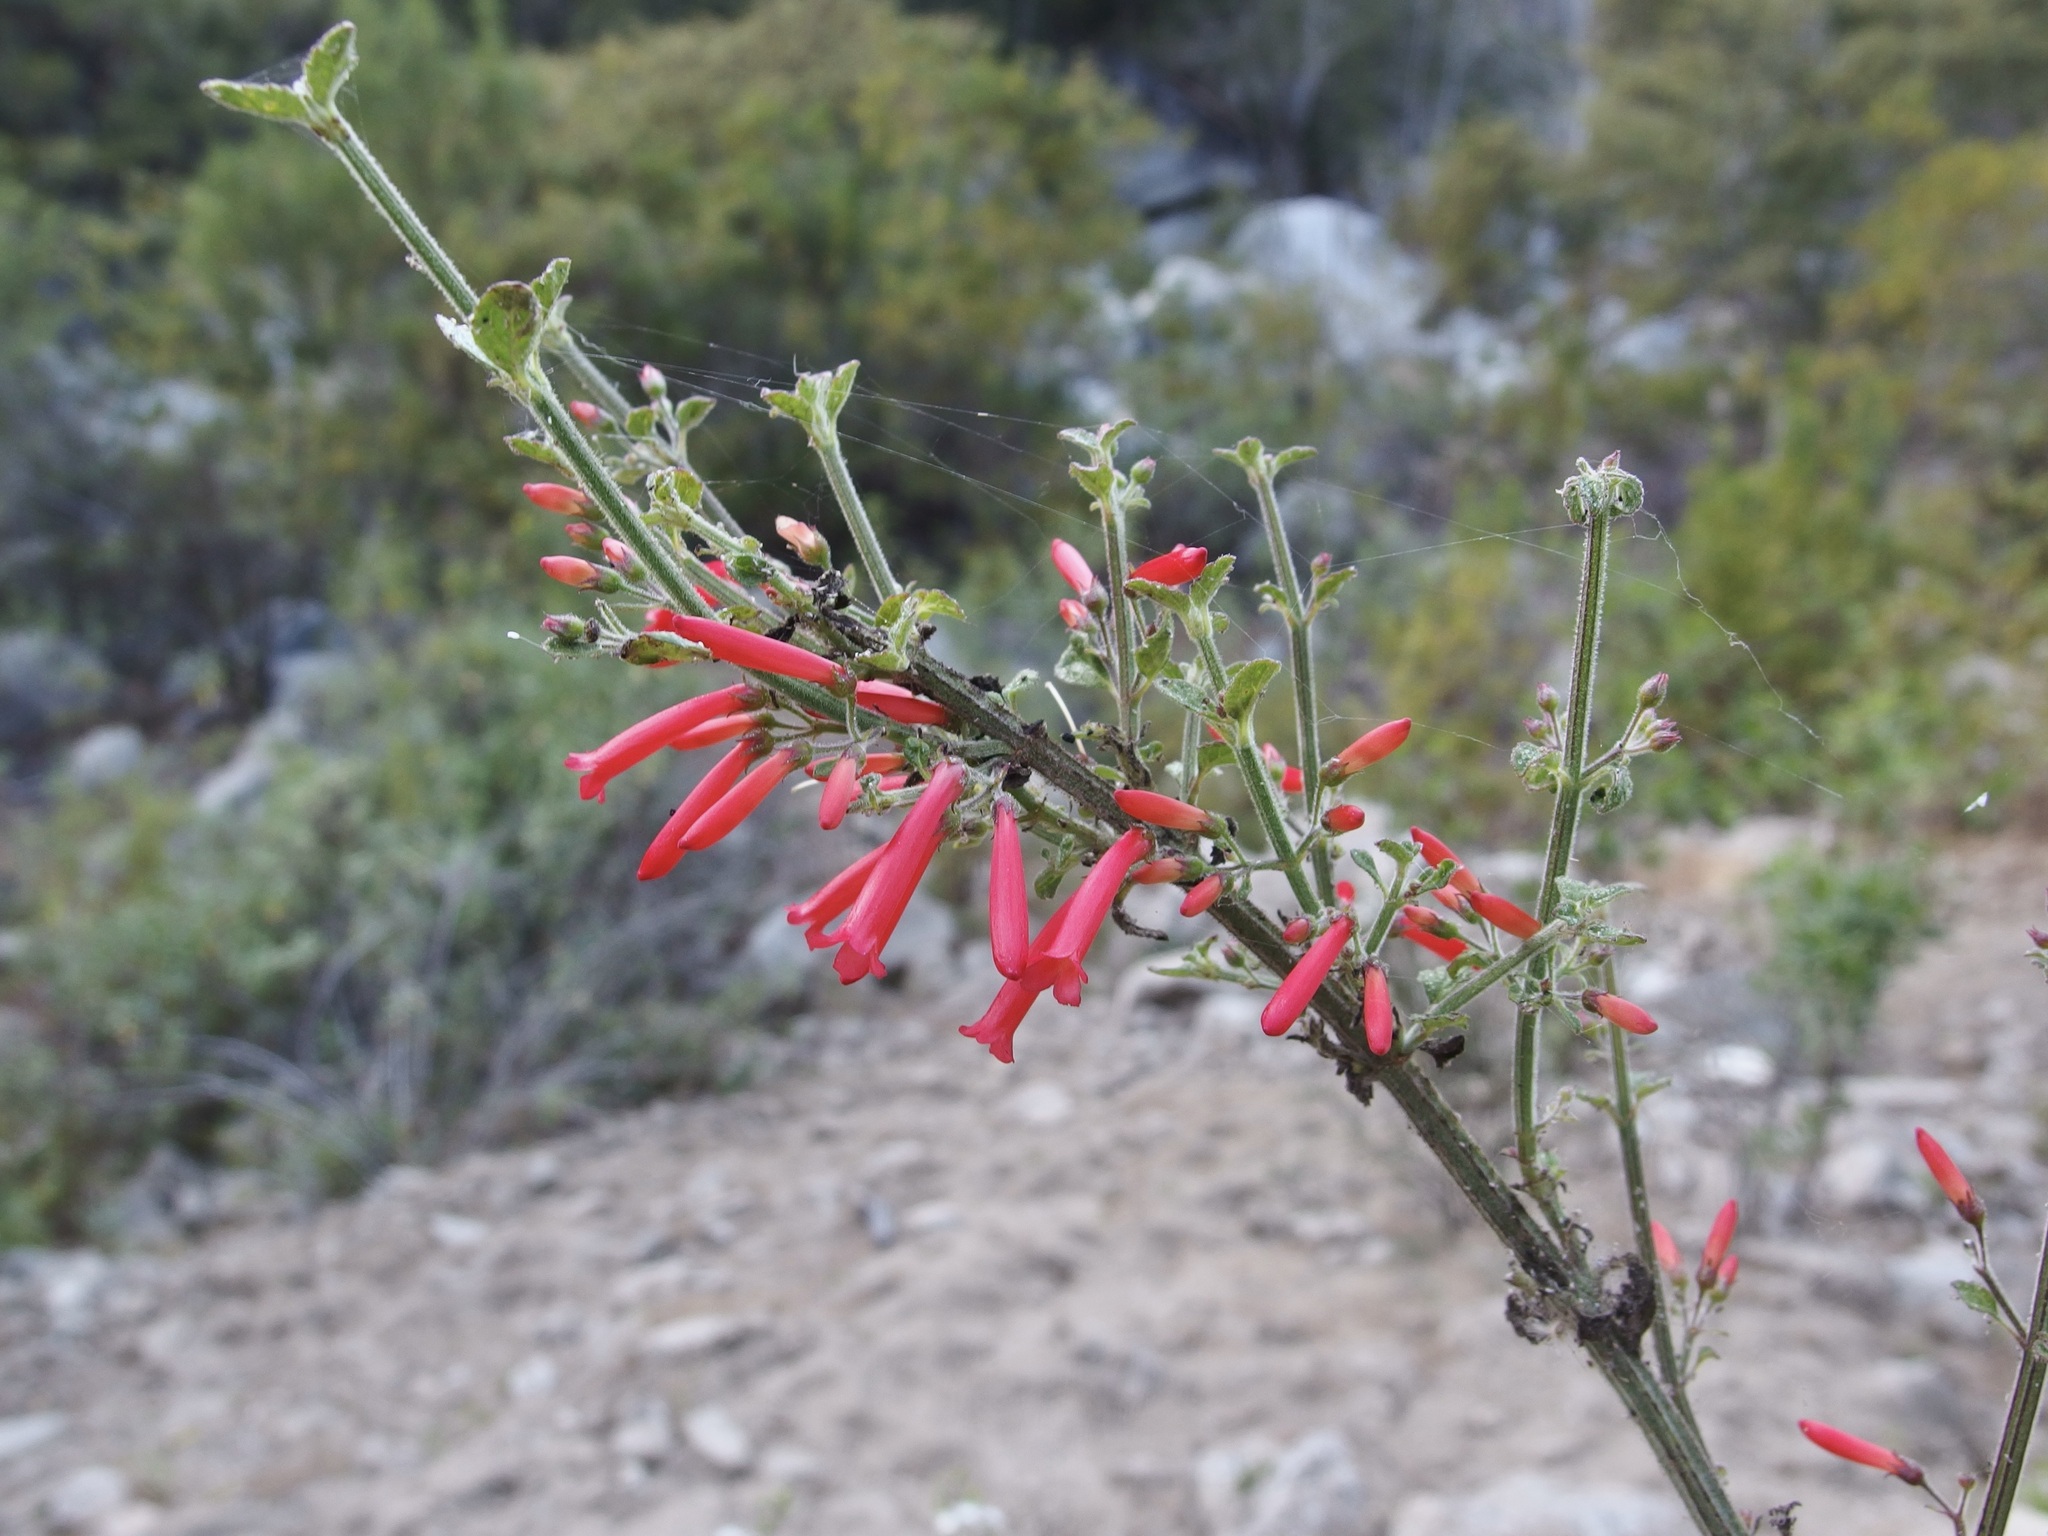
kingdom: Plantae
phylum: Tracheophyta
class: Magnoliopsida
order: Lamiales
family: Plantaginaceae
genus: Russelia
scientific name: Russelia retrorsa
